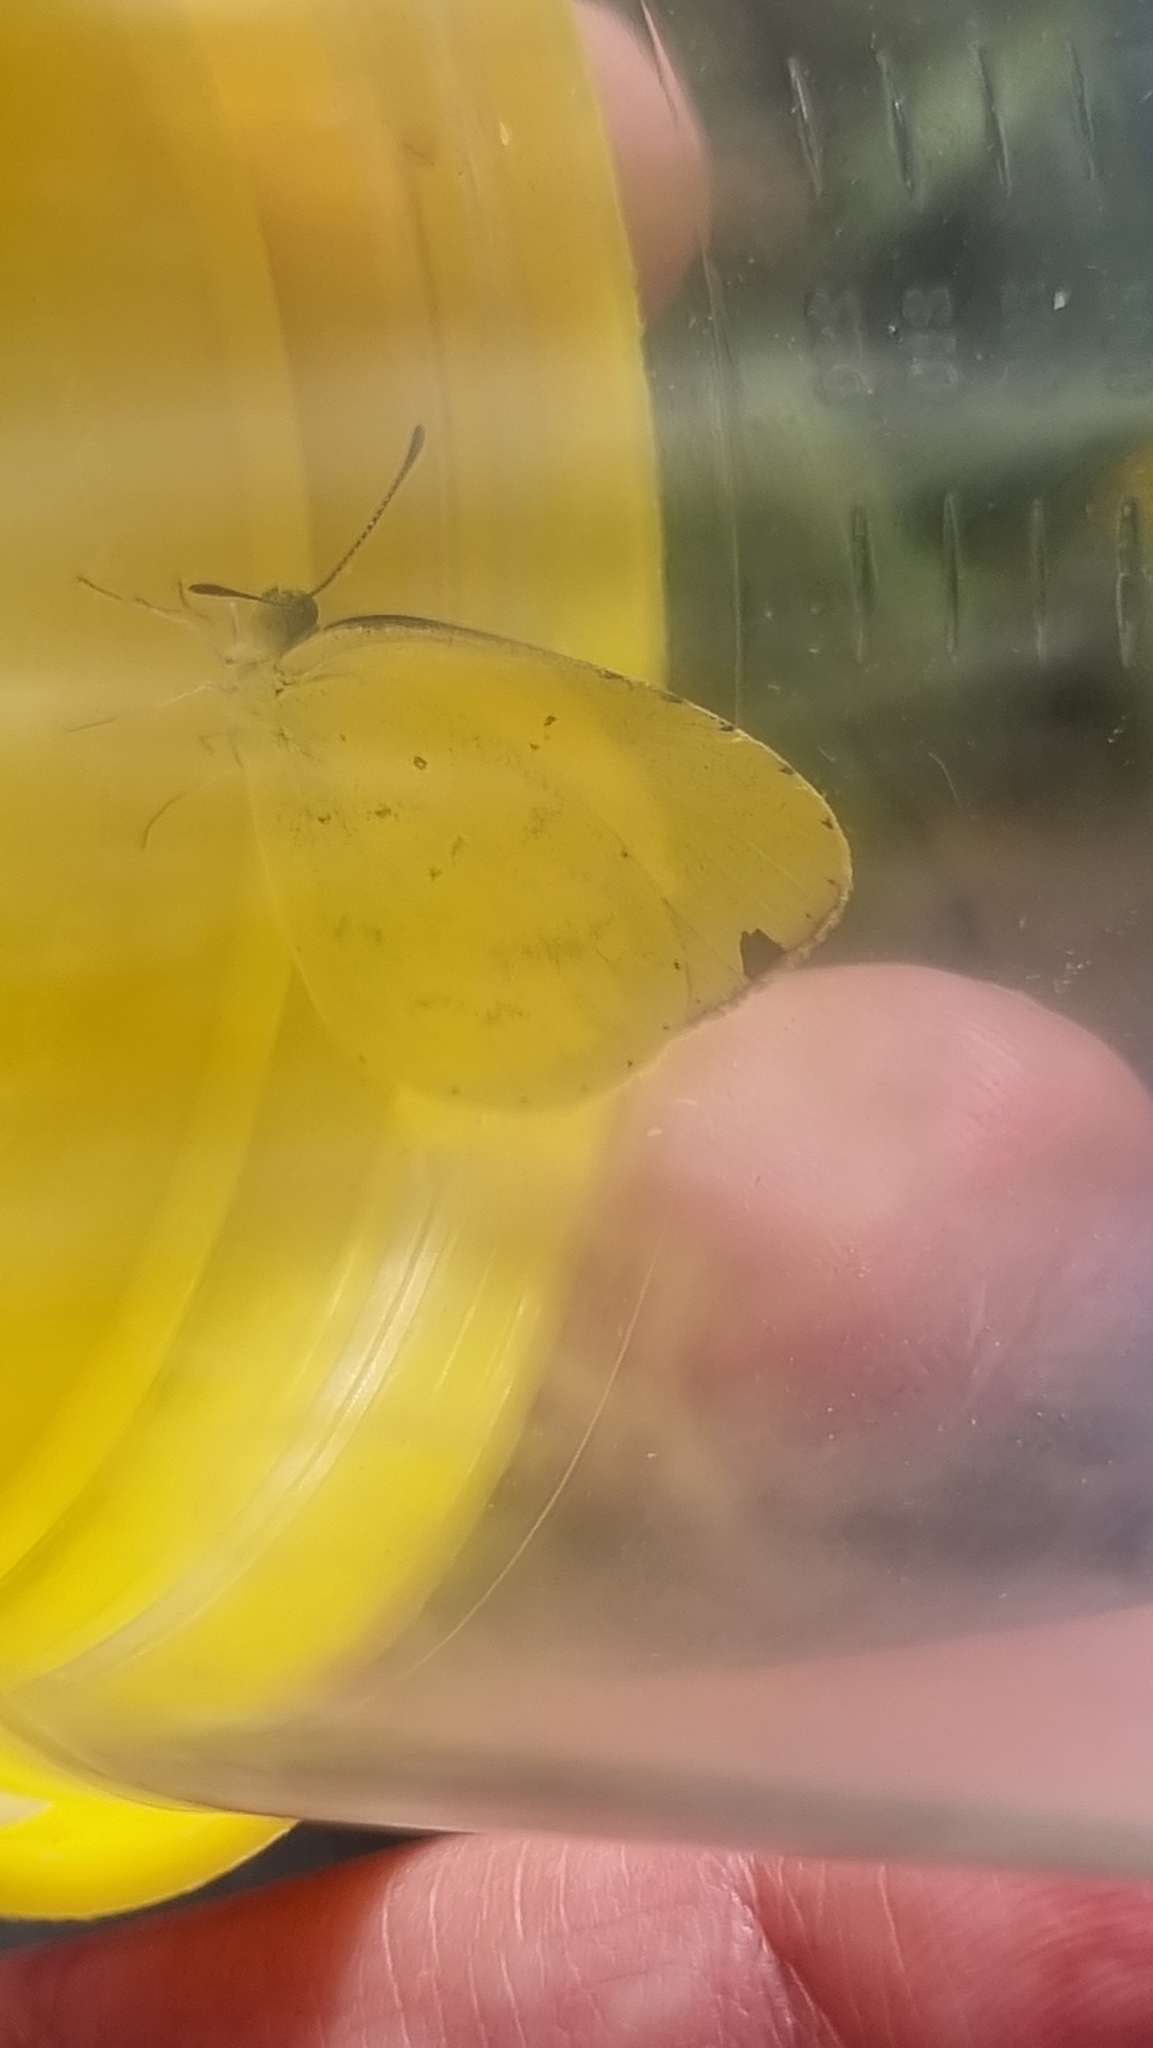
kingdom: Animalia
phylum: Arthropoda
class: Insecta
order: Lepidoptera
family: Pieridae
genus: Eurema
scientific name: Eurema brigitta
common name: Small grass yellow
